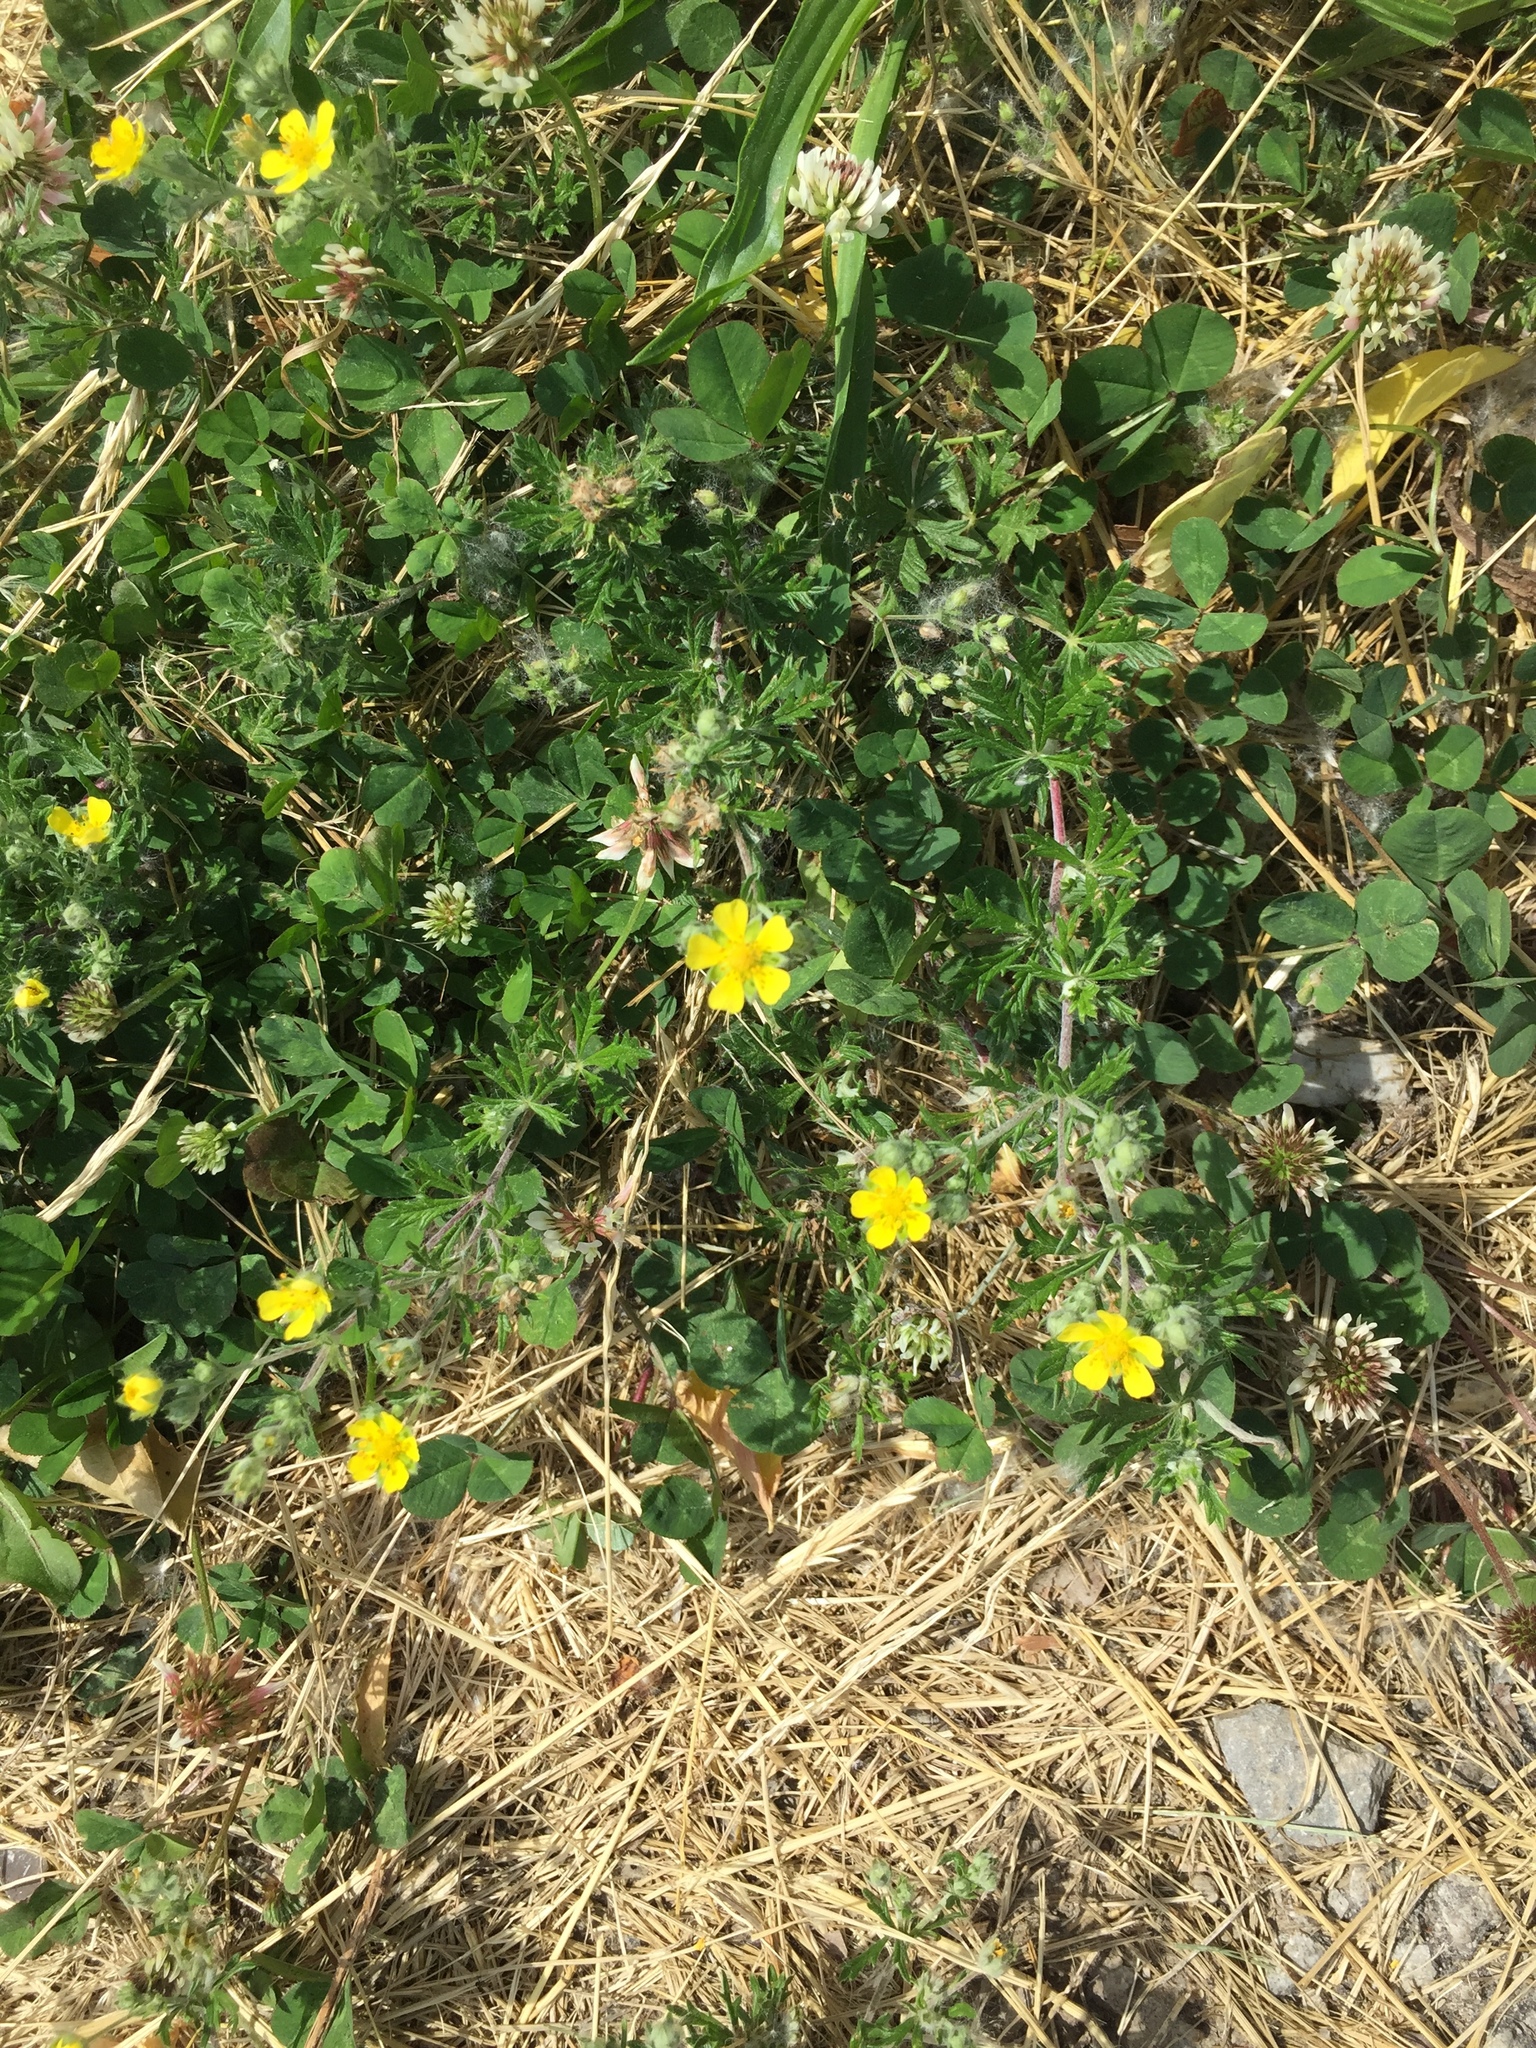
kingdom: Plantae
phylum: Tracheophyta
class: Magnoliopsida
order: Rosales
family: Rosaceae
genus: Potentilla
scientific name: Potentilla argentea
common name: Hoary cinquefoil
